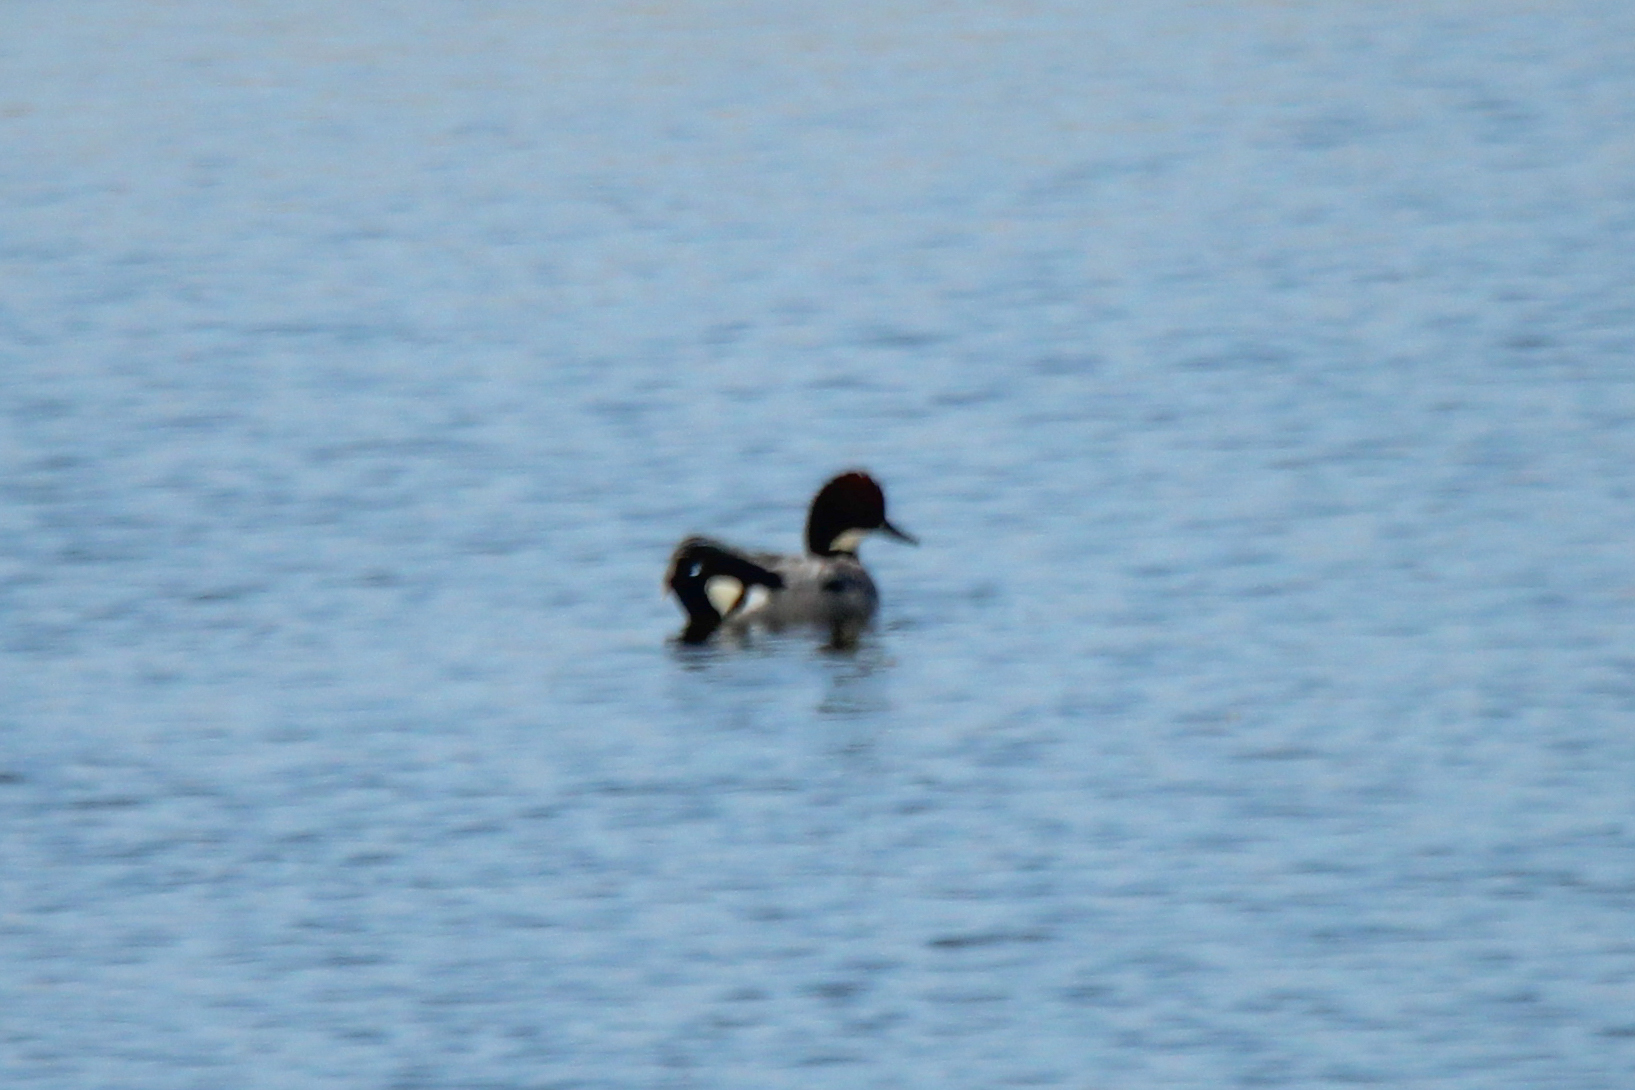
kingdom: Animalia
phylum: Chordata
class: Aves
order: Anseriformes
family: Anatidae
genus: Mareca
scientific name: Mareca falcata
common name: Falcated duck
